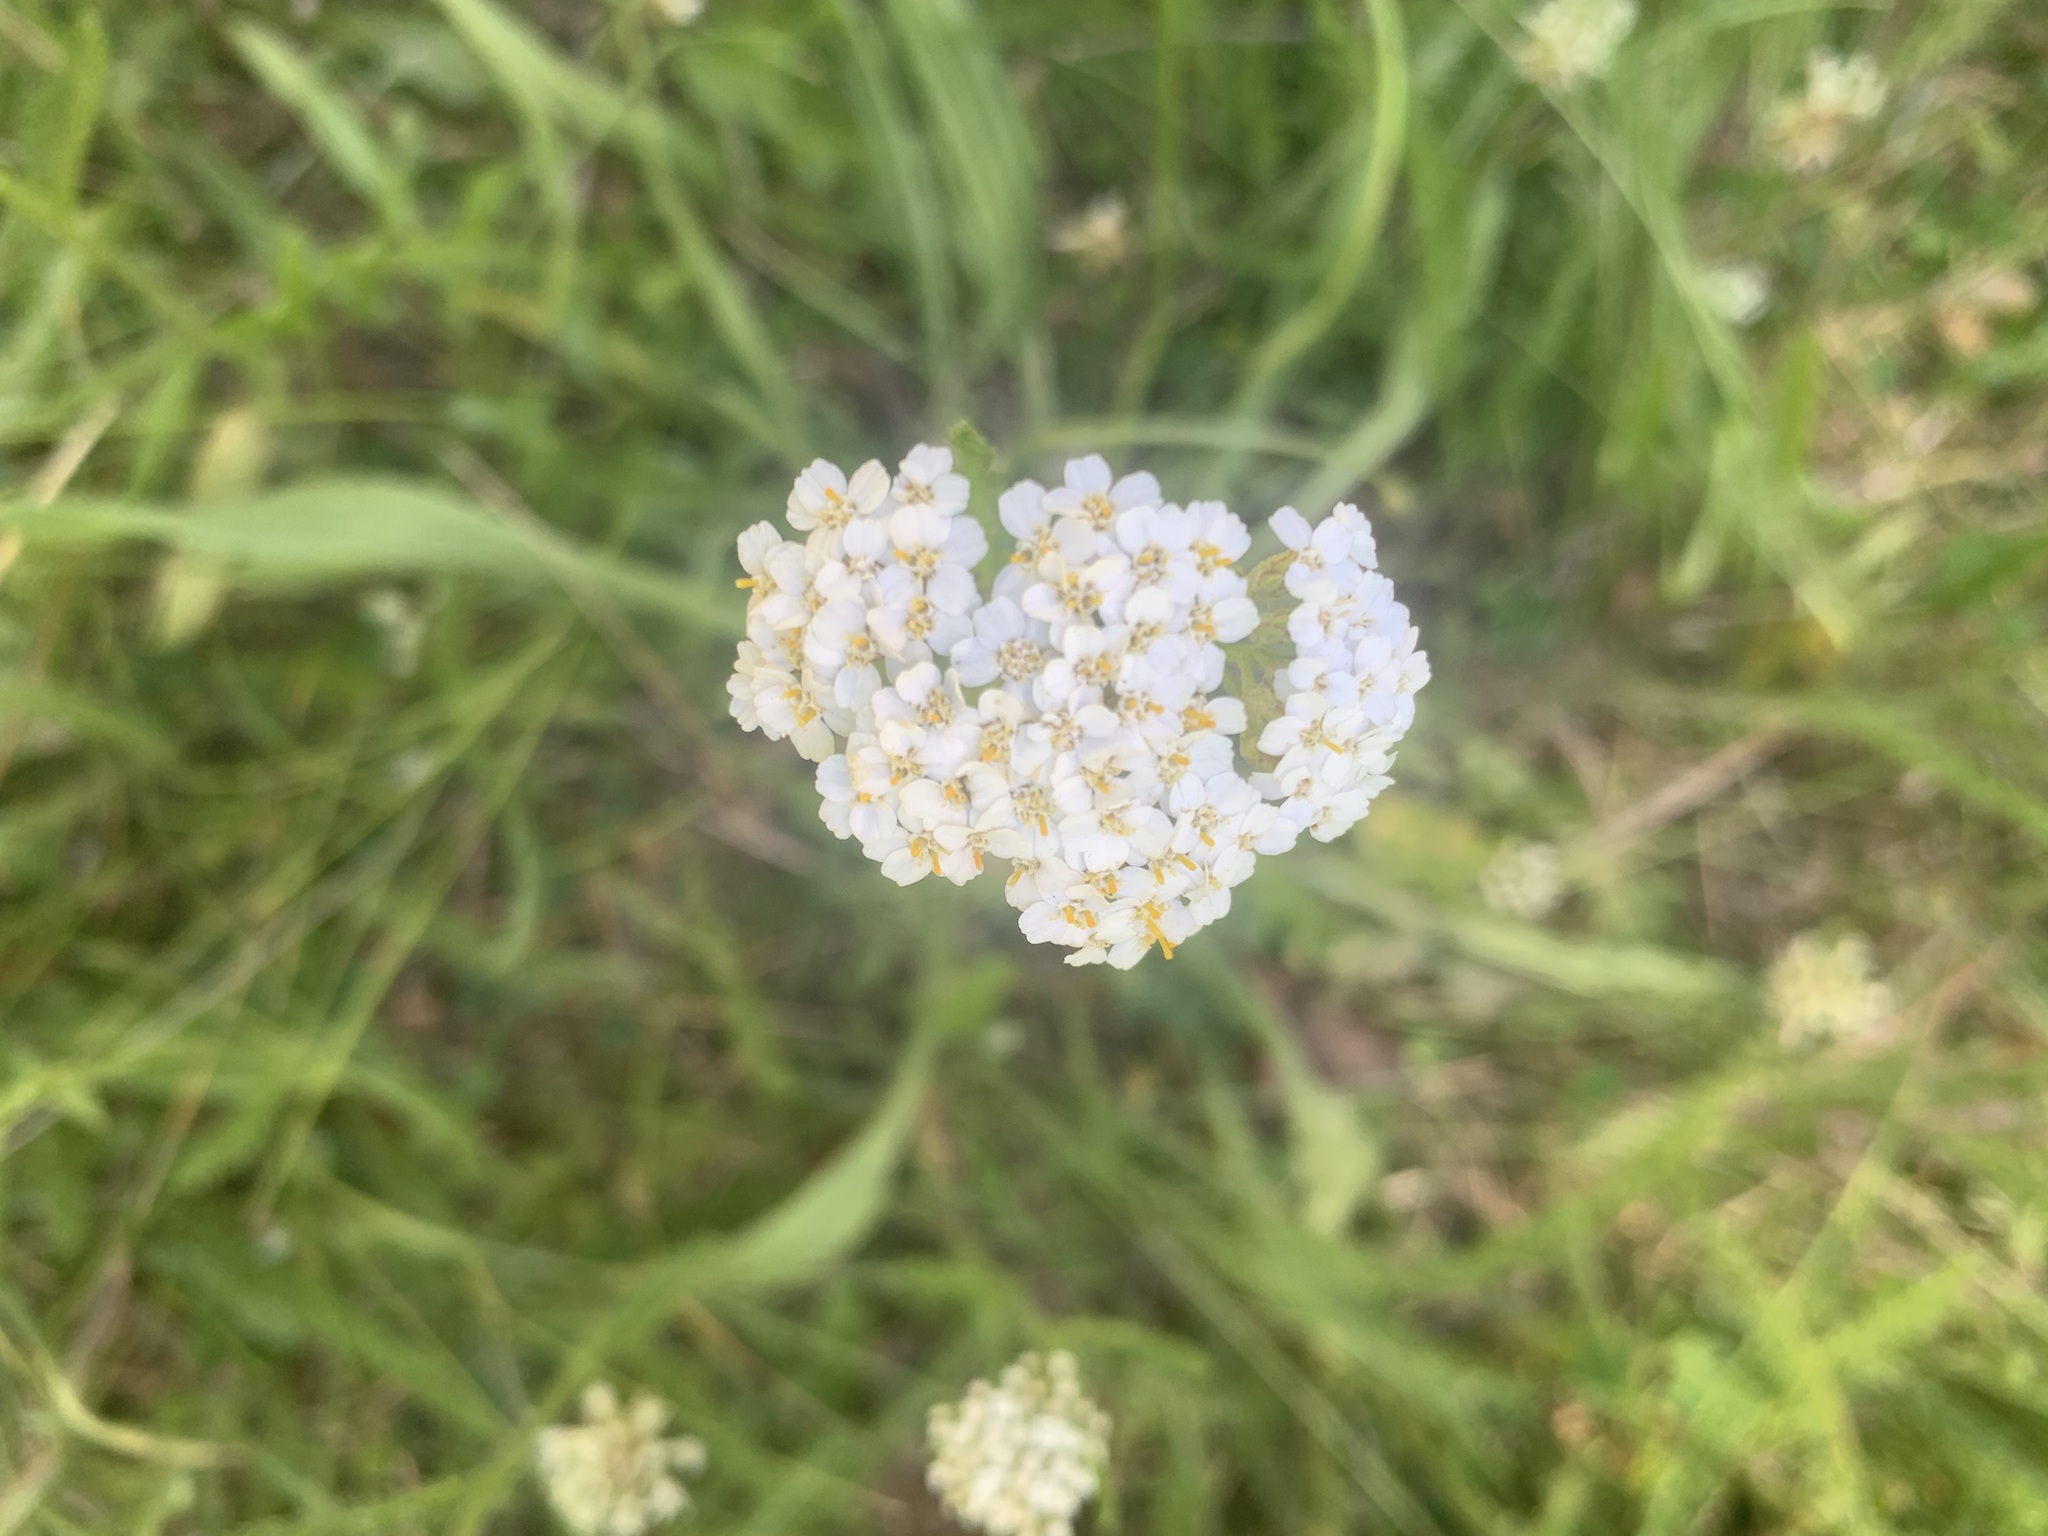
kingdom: Plantae
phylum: Tracheophyta
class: Magnoliopsida
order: Asterales
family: Asteraceae
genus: Achillea
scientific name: Achillea millefolium
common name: Yarrow
